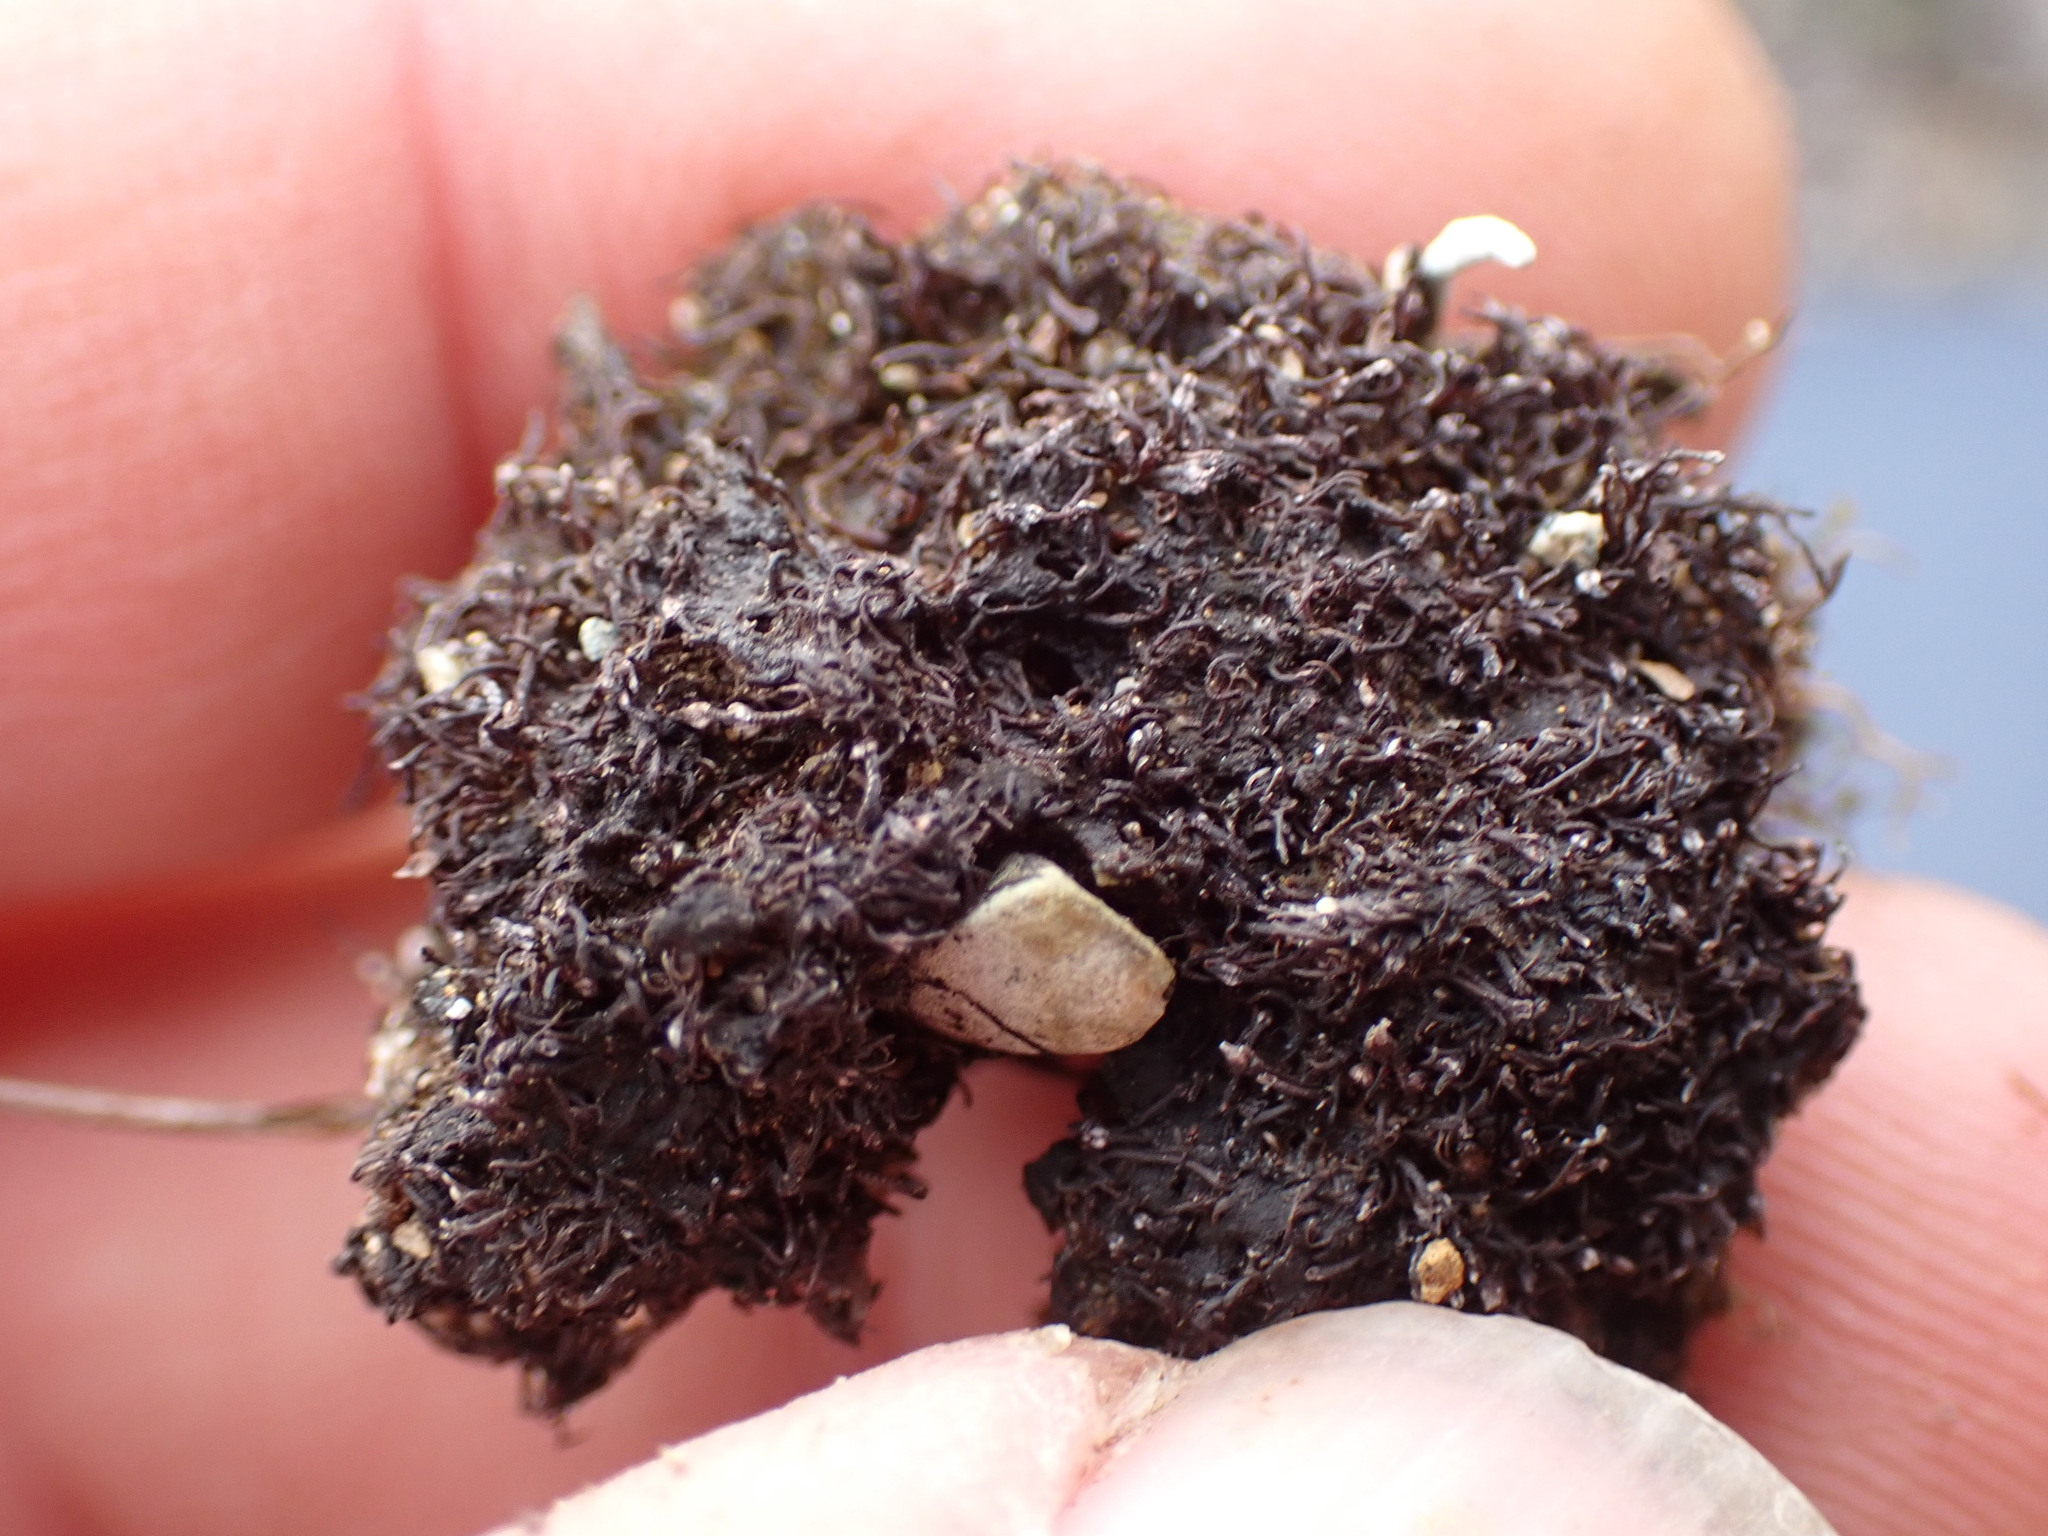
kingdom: Plantae
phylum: Marchantiophyta
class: Jungermanniopsida
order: Jungermanniales
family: Gymnomitriaceae
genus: Marsupella
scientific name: Marsupella stableri
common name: Stabler's rustwort
